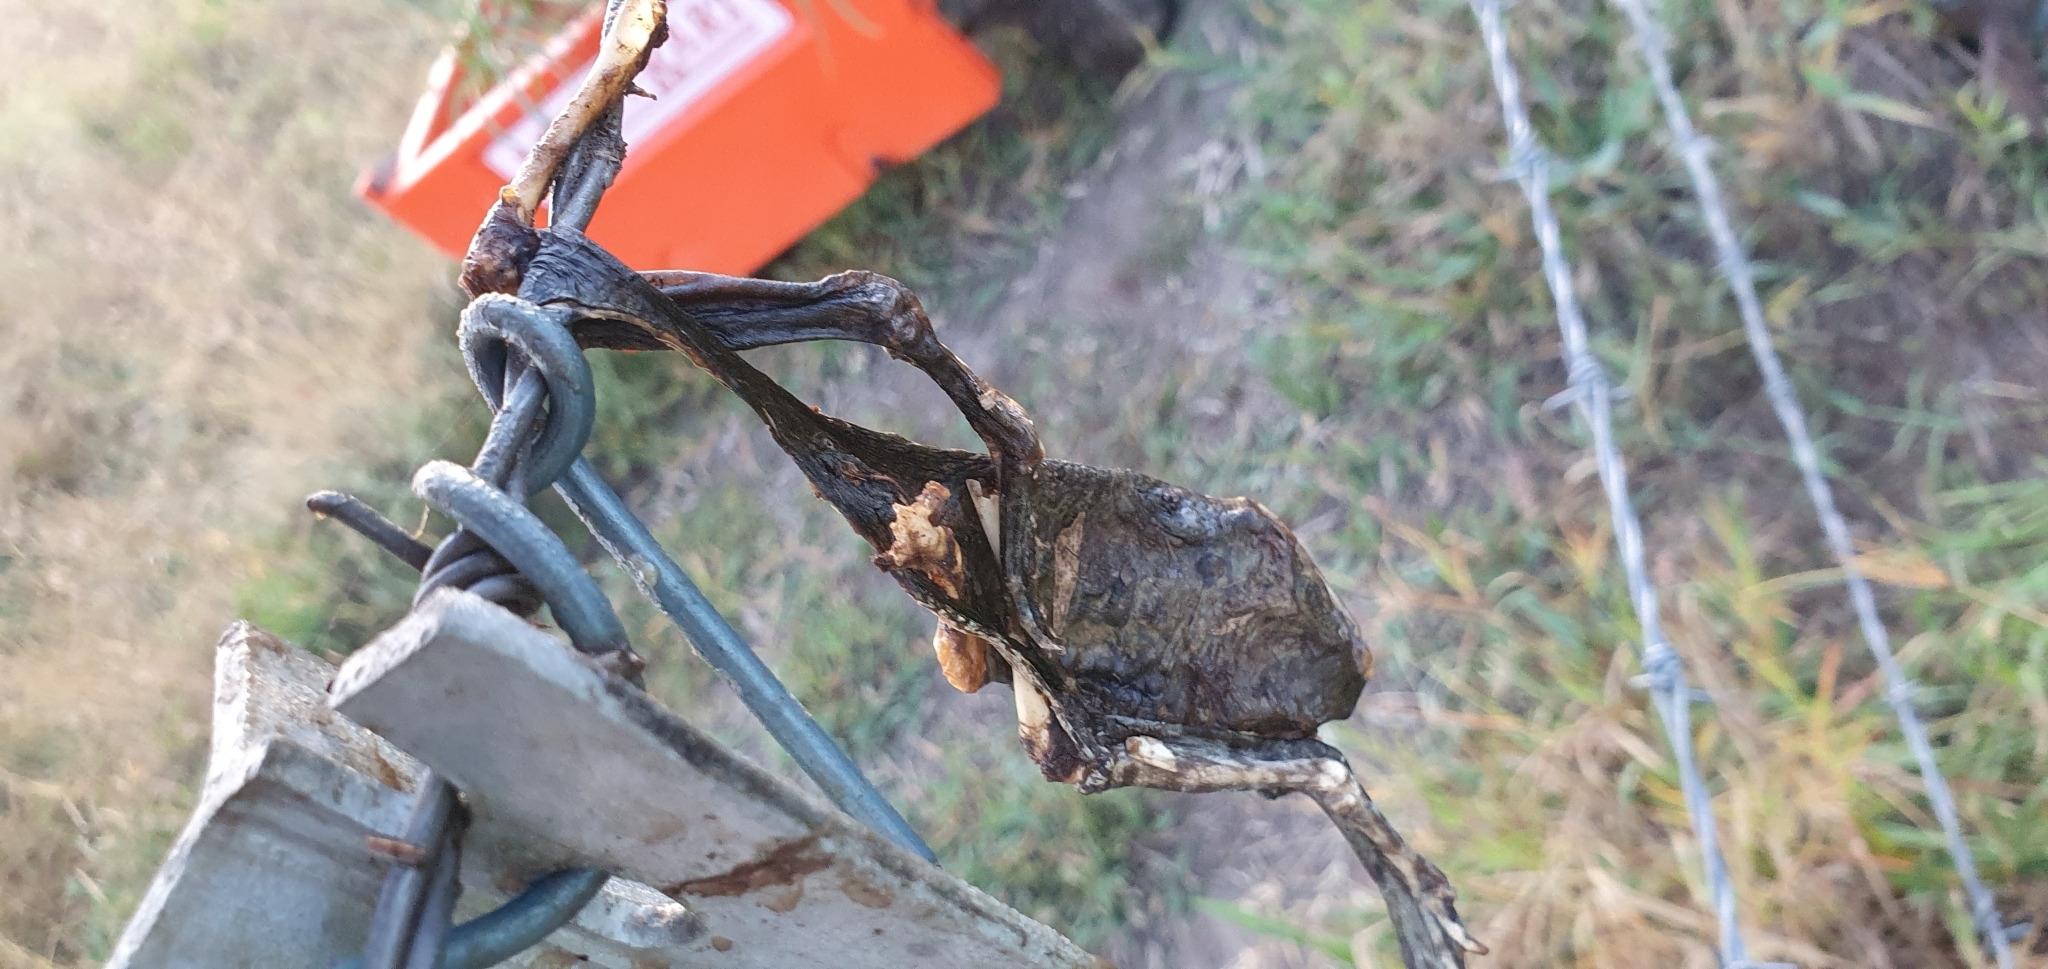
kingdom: Animalia
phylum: Chordata
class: Amphibia
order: Anura
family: Bufonidae
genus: Rhinella
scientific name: Rhinella marina
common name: Cane toad
